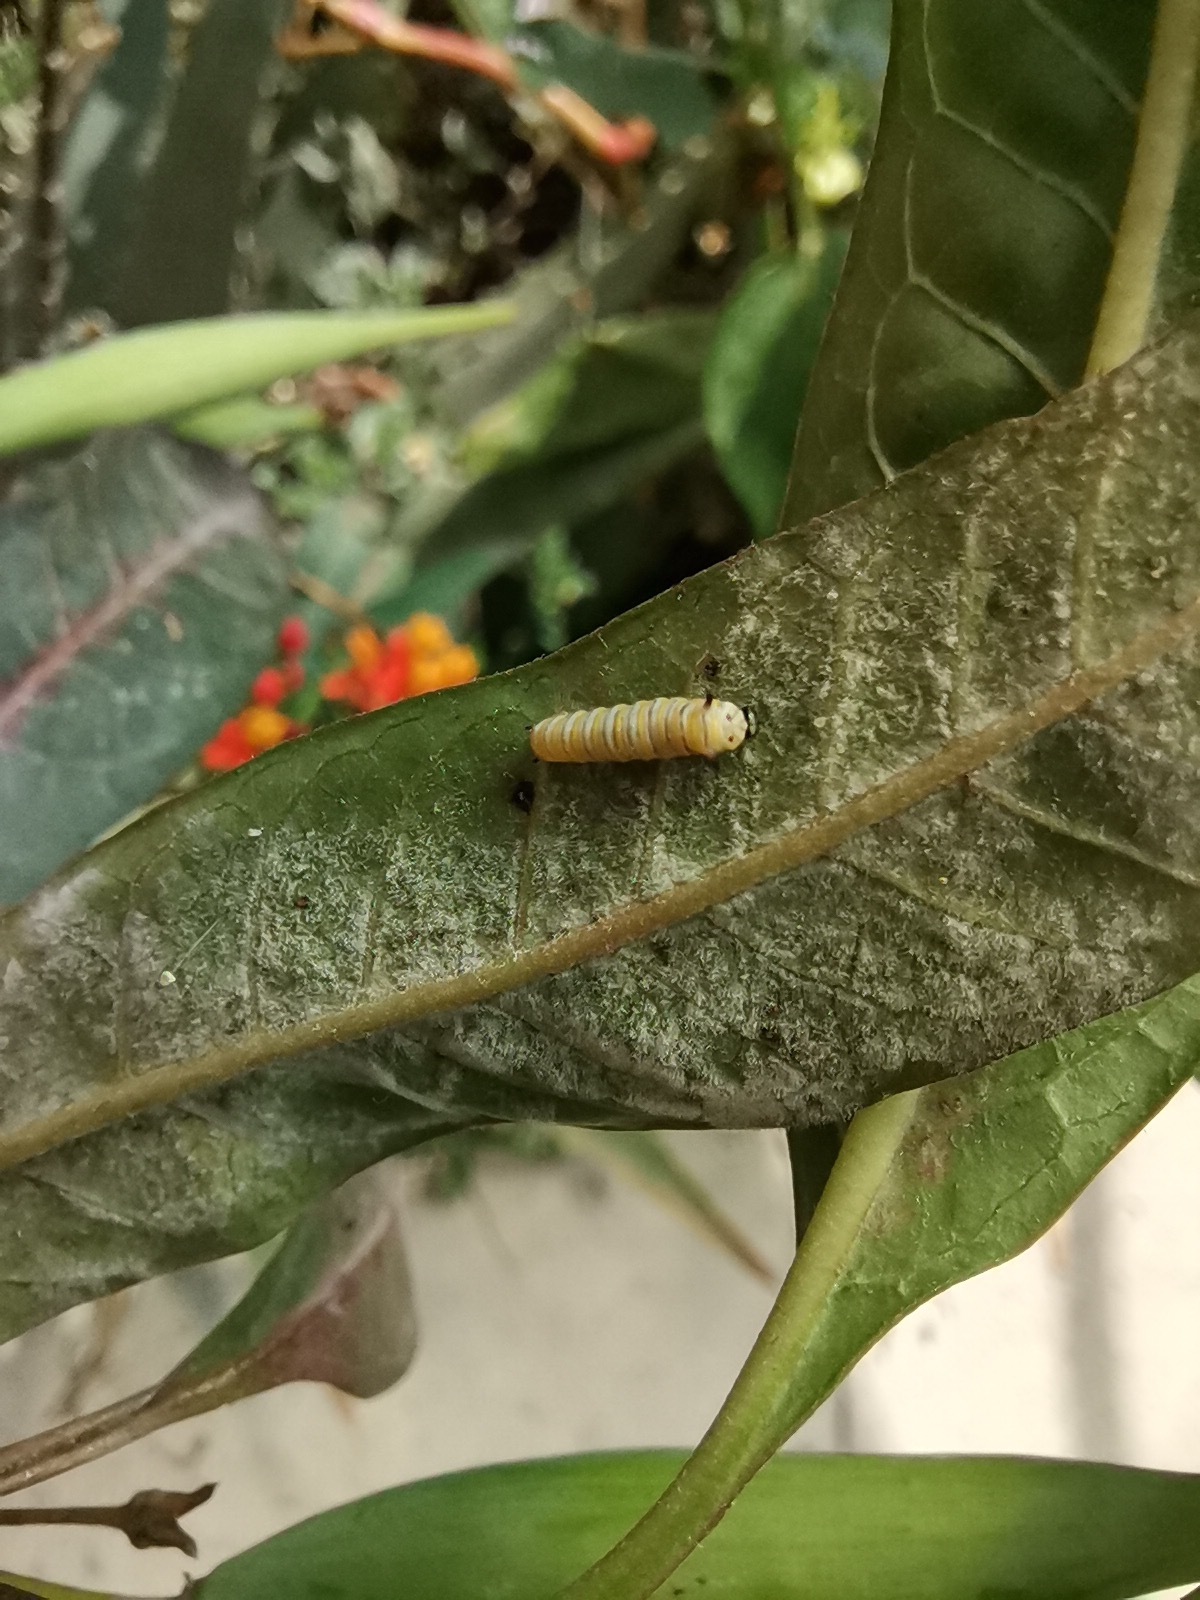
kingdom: Animalia
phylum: Arthropoda
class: Insecta
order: Lepidoptera
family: Nymphalidae
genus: Danaus
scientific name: Danaus plexippus
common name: Monarch
